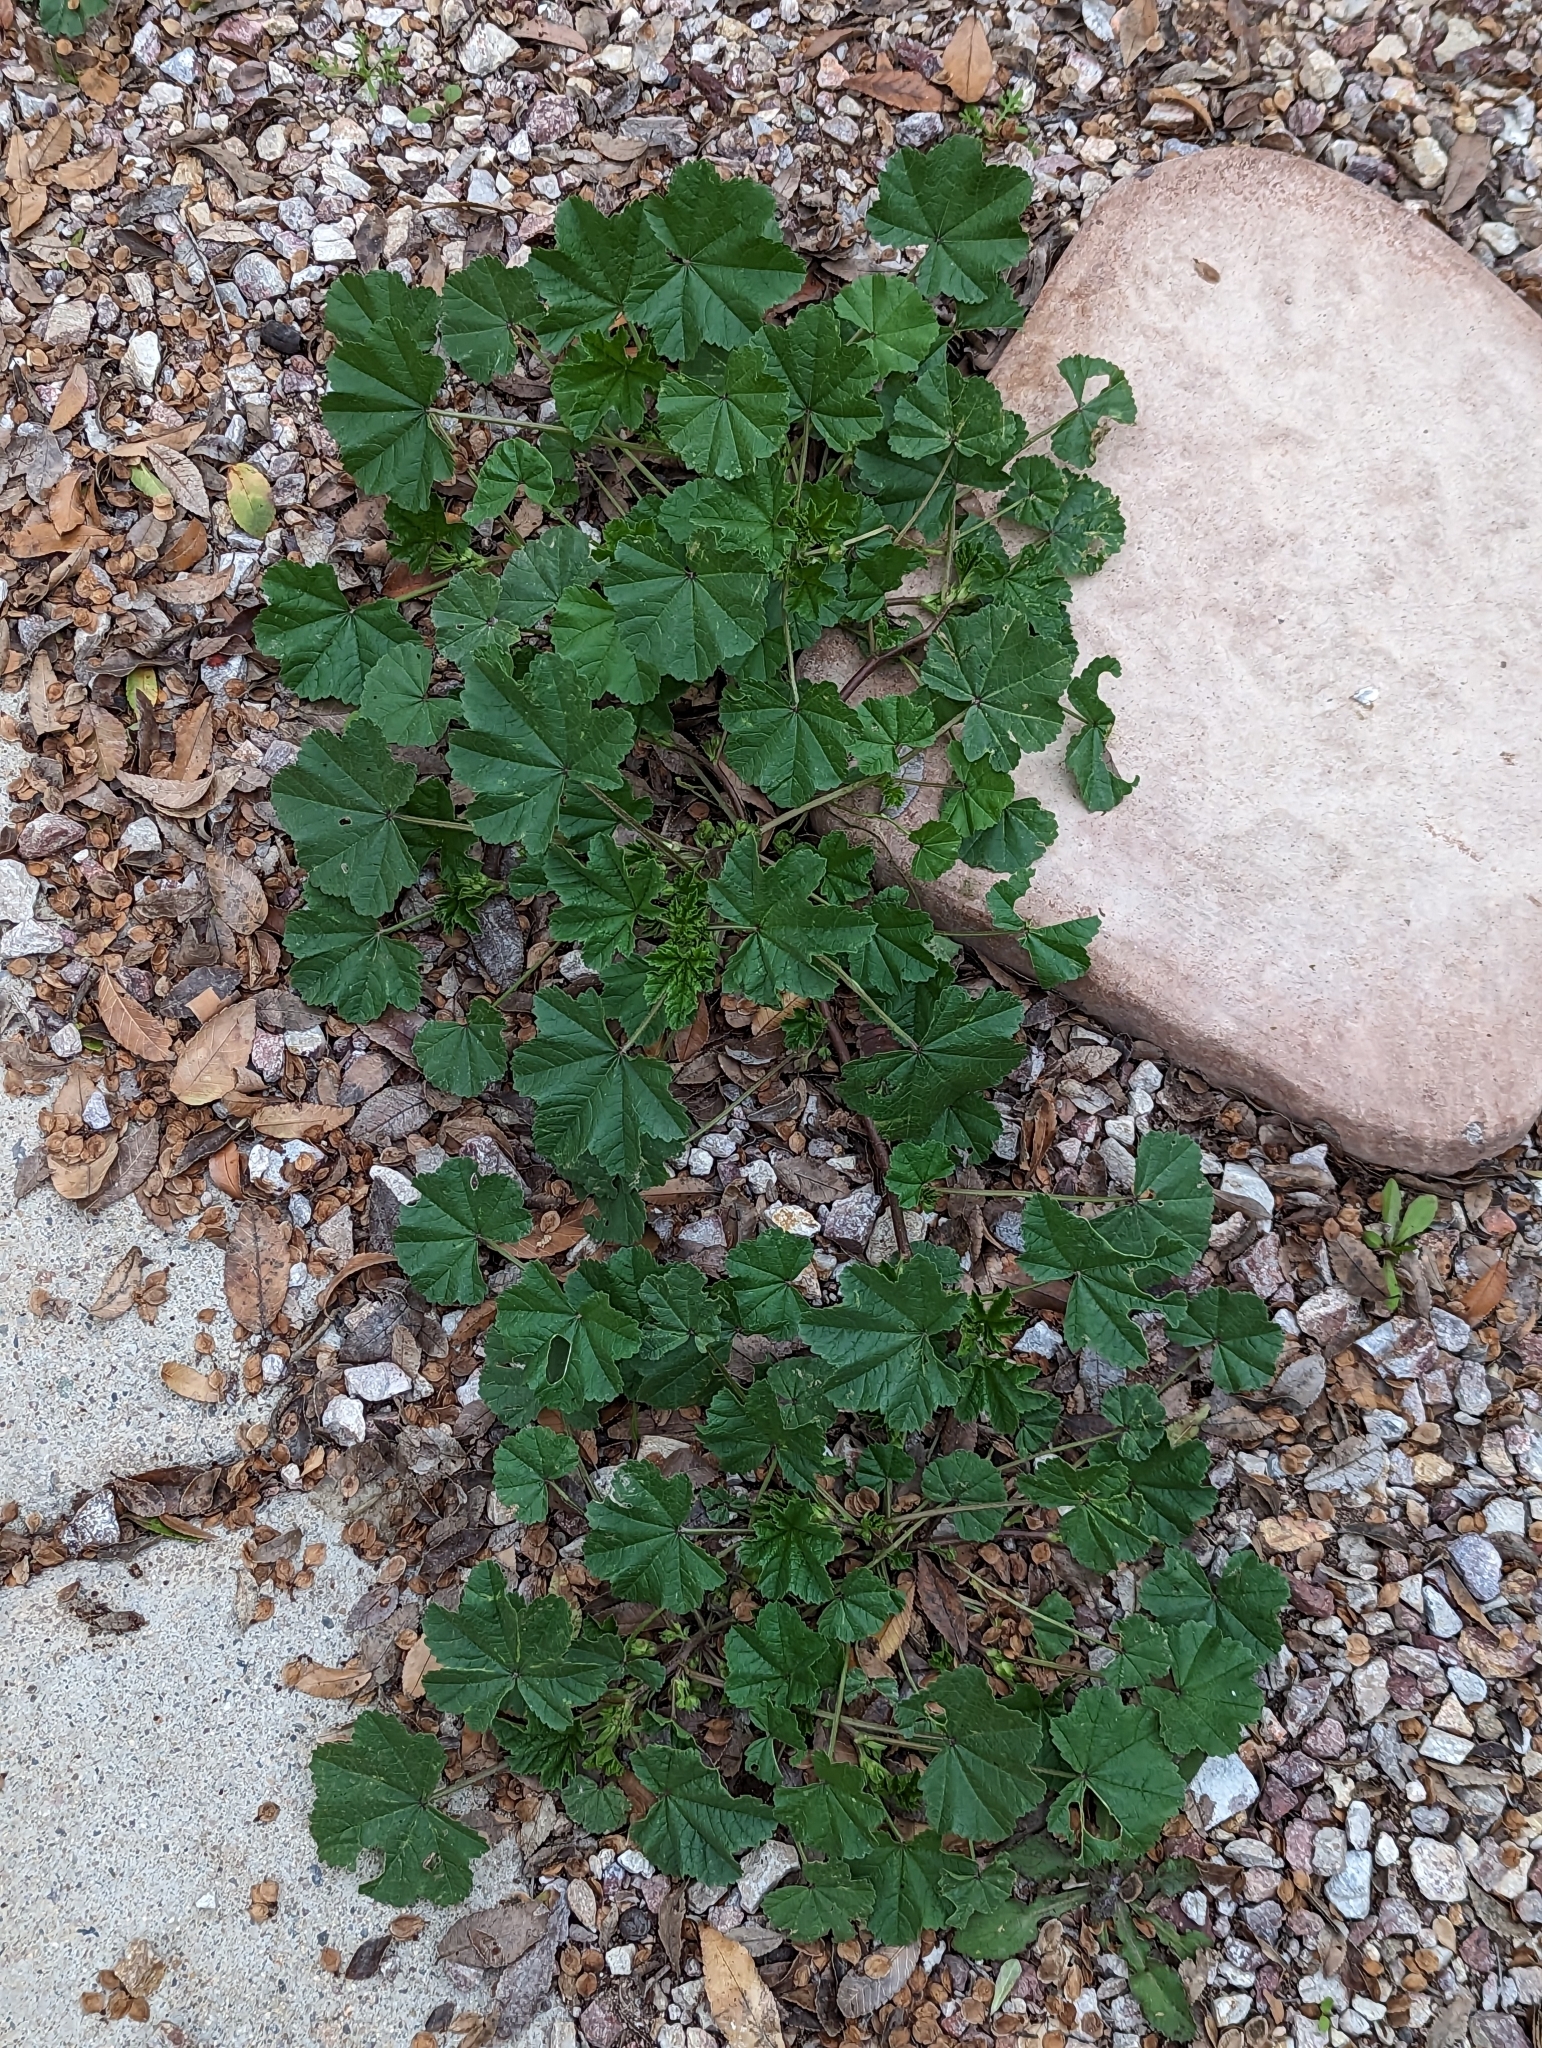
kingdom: Plantae
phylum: Tracheophyta
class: Magnoliopsida
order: Malvales
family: Malvaceae
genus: Malva
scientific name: Malva parviflora
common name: Least mallow
